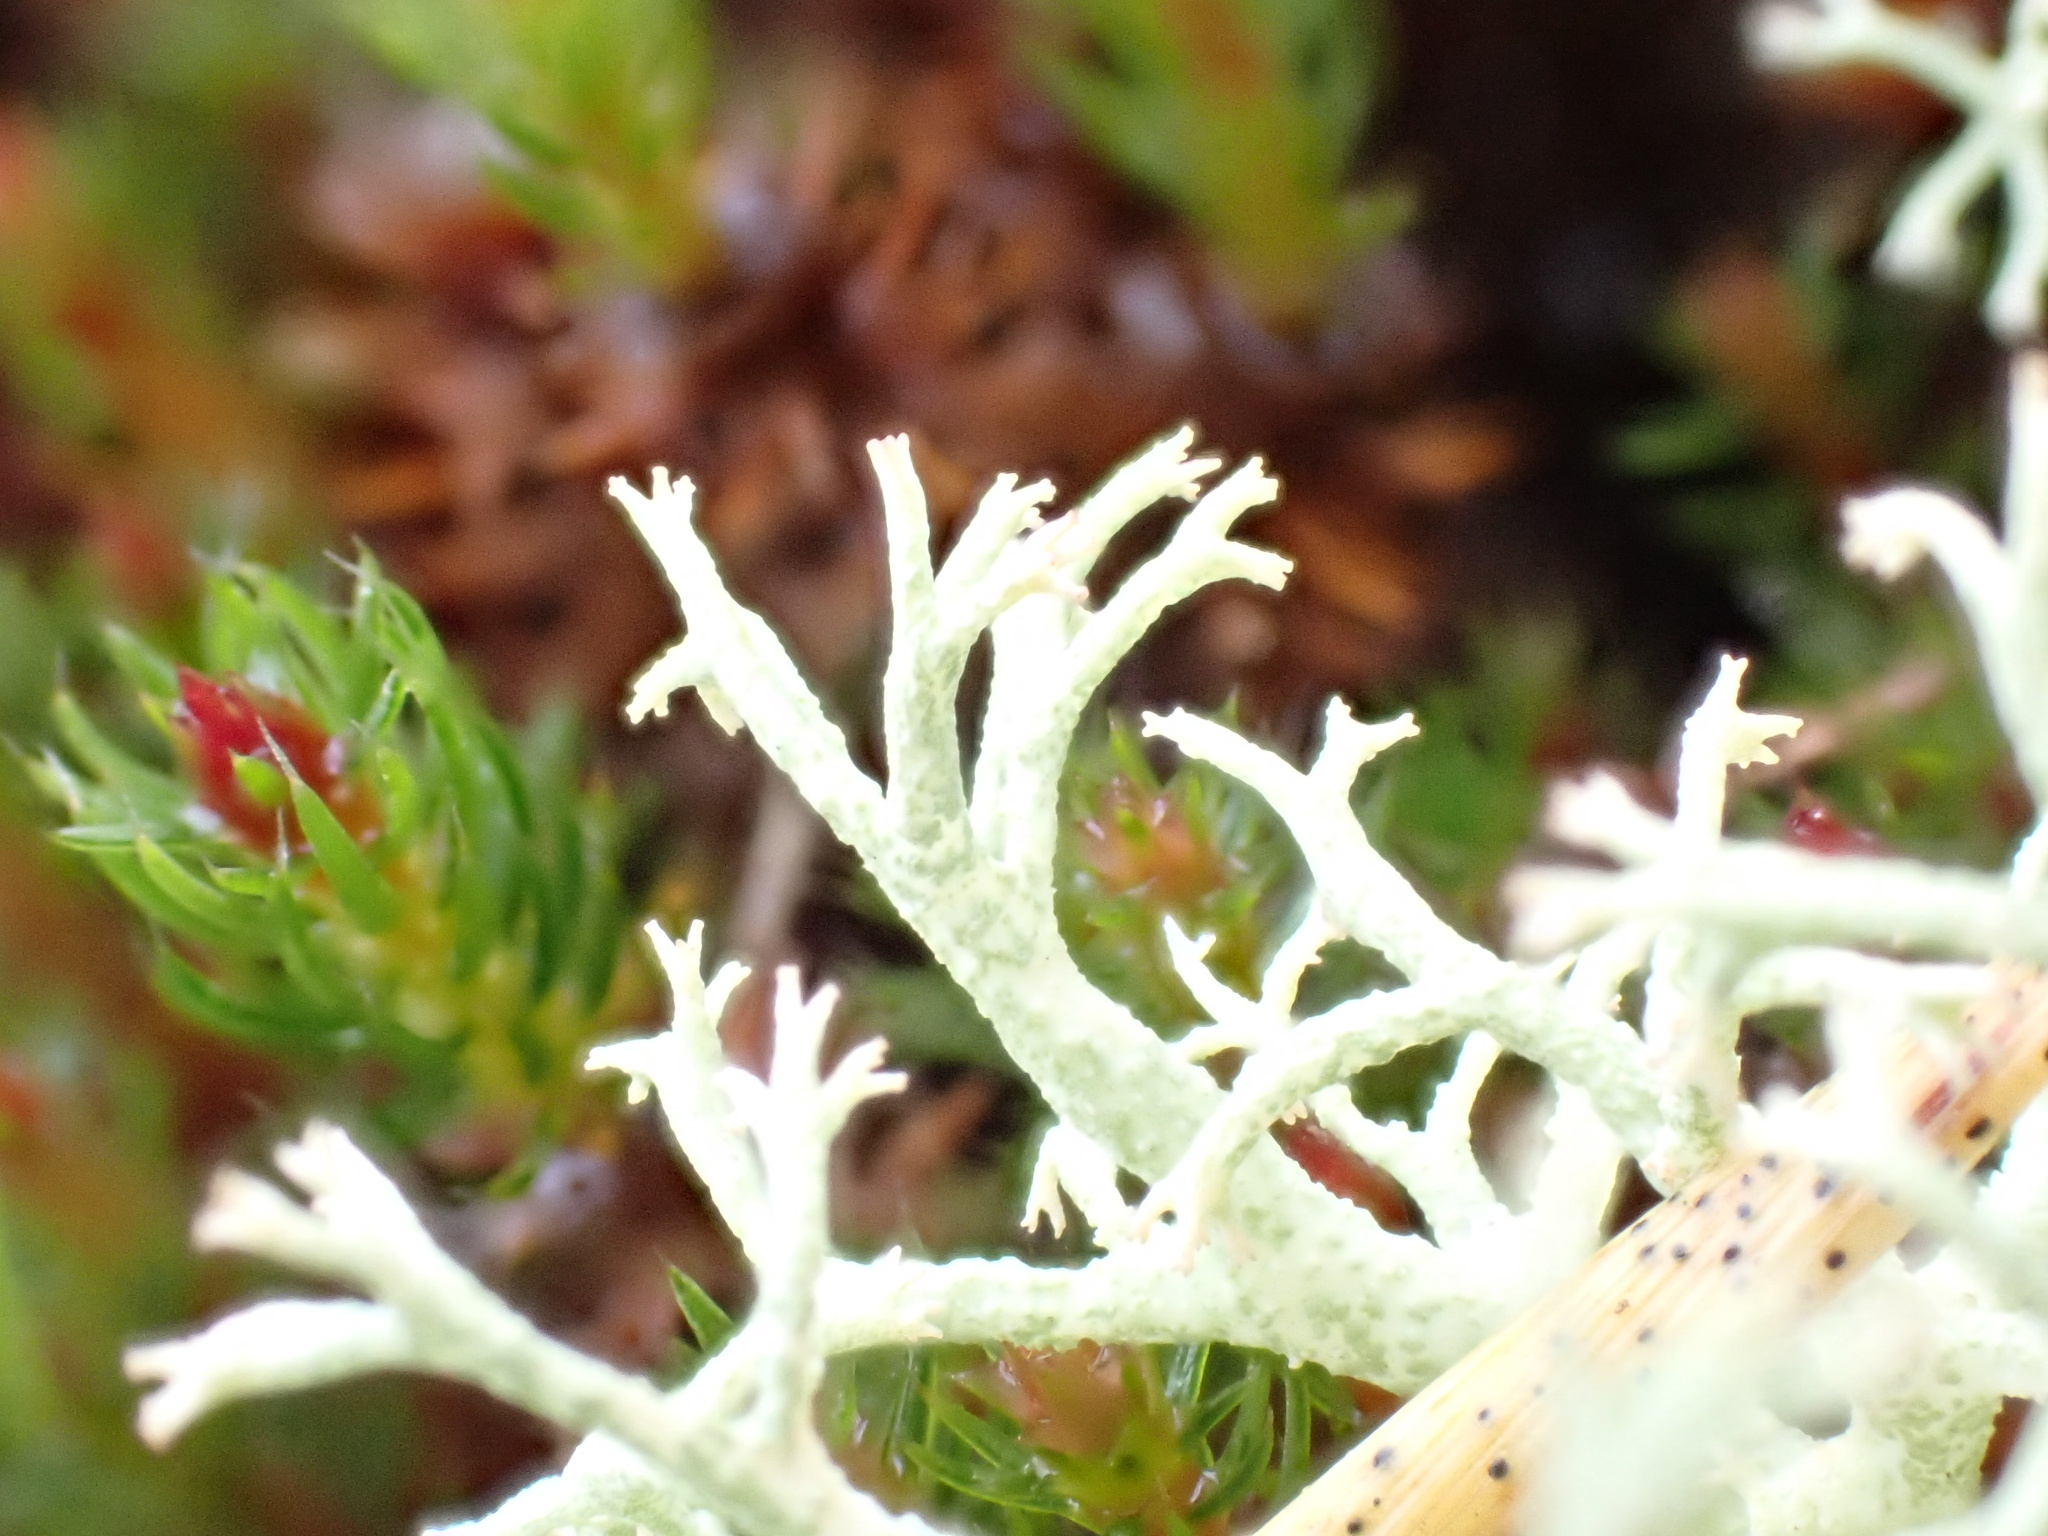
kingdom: Fungi
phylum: Ascomycota
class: Lecanoromycetes
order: Lecanorales
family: Cladoniaceae
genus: Cladonia
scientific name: Cladonia portentosa
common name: Reindeer lichen
